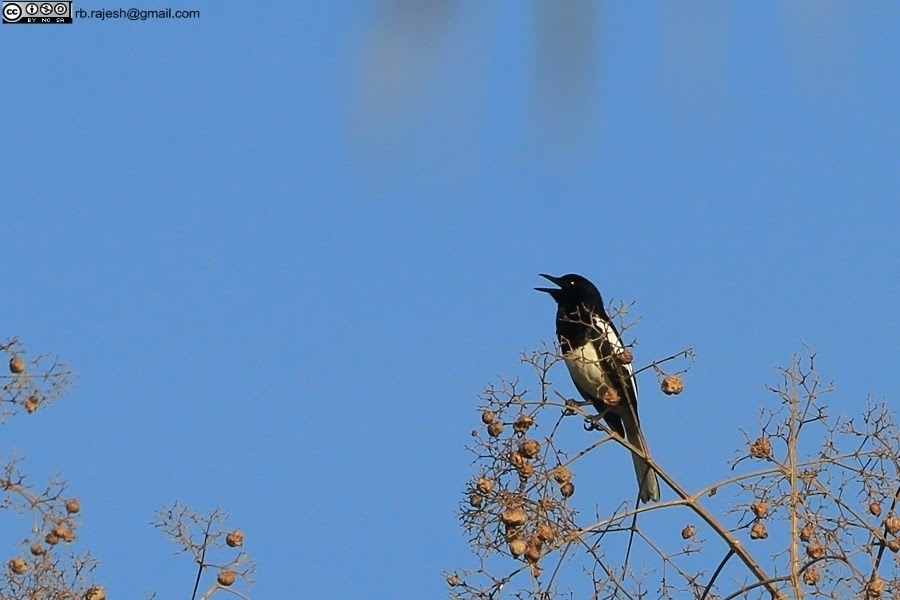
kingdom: Animalia
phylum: Chordata
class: Aves
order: Passeriformes
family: Muscicapidae
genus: Copsychus
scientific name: Copsychus saularis
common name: Oriental magpie-robin
